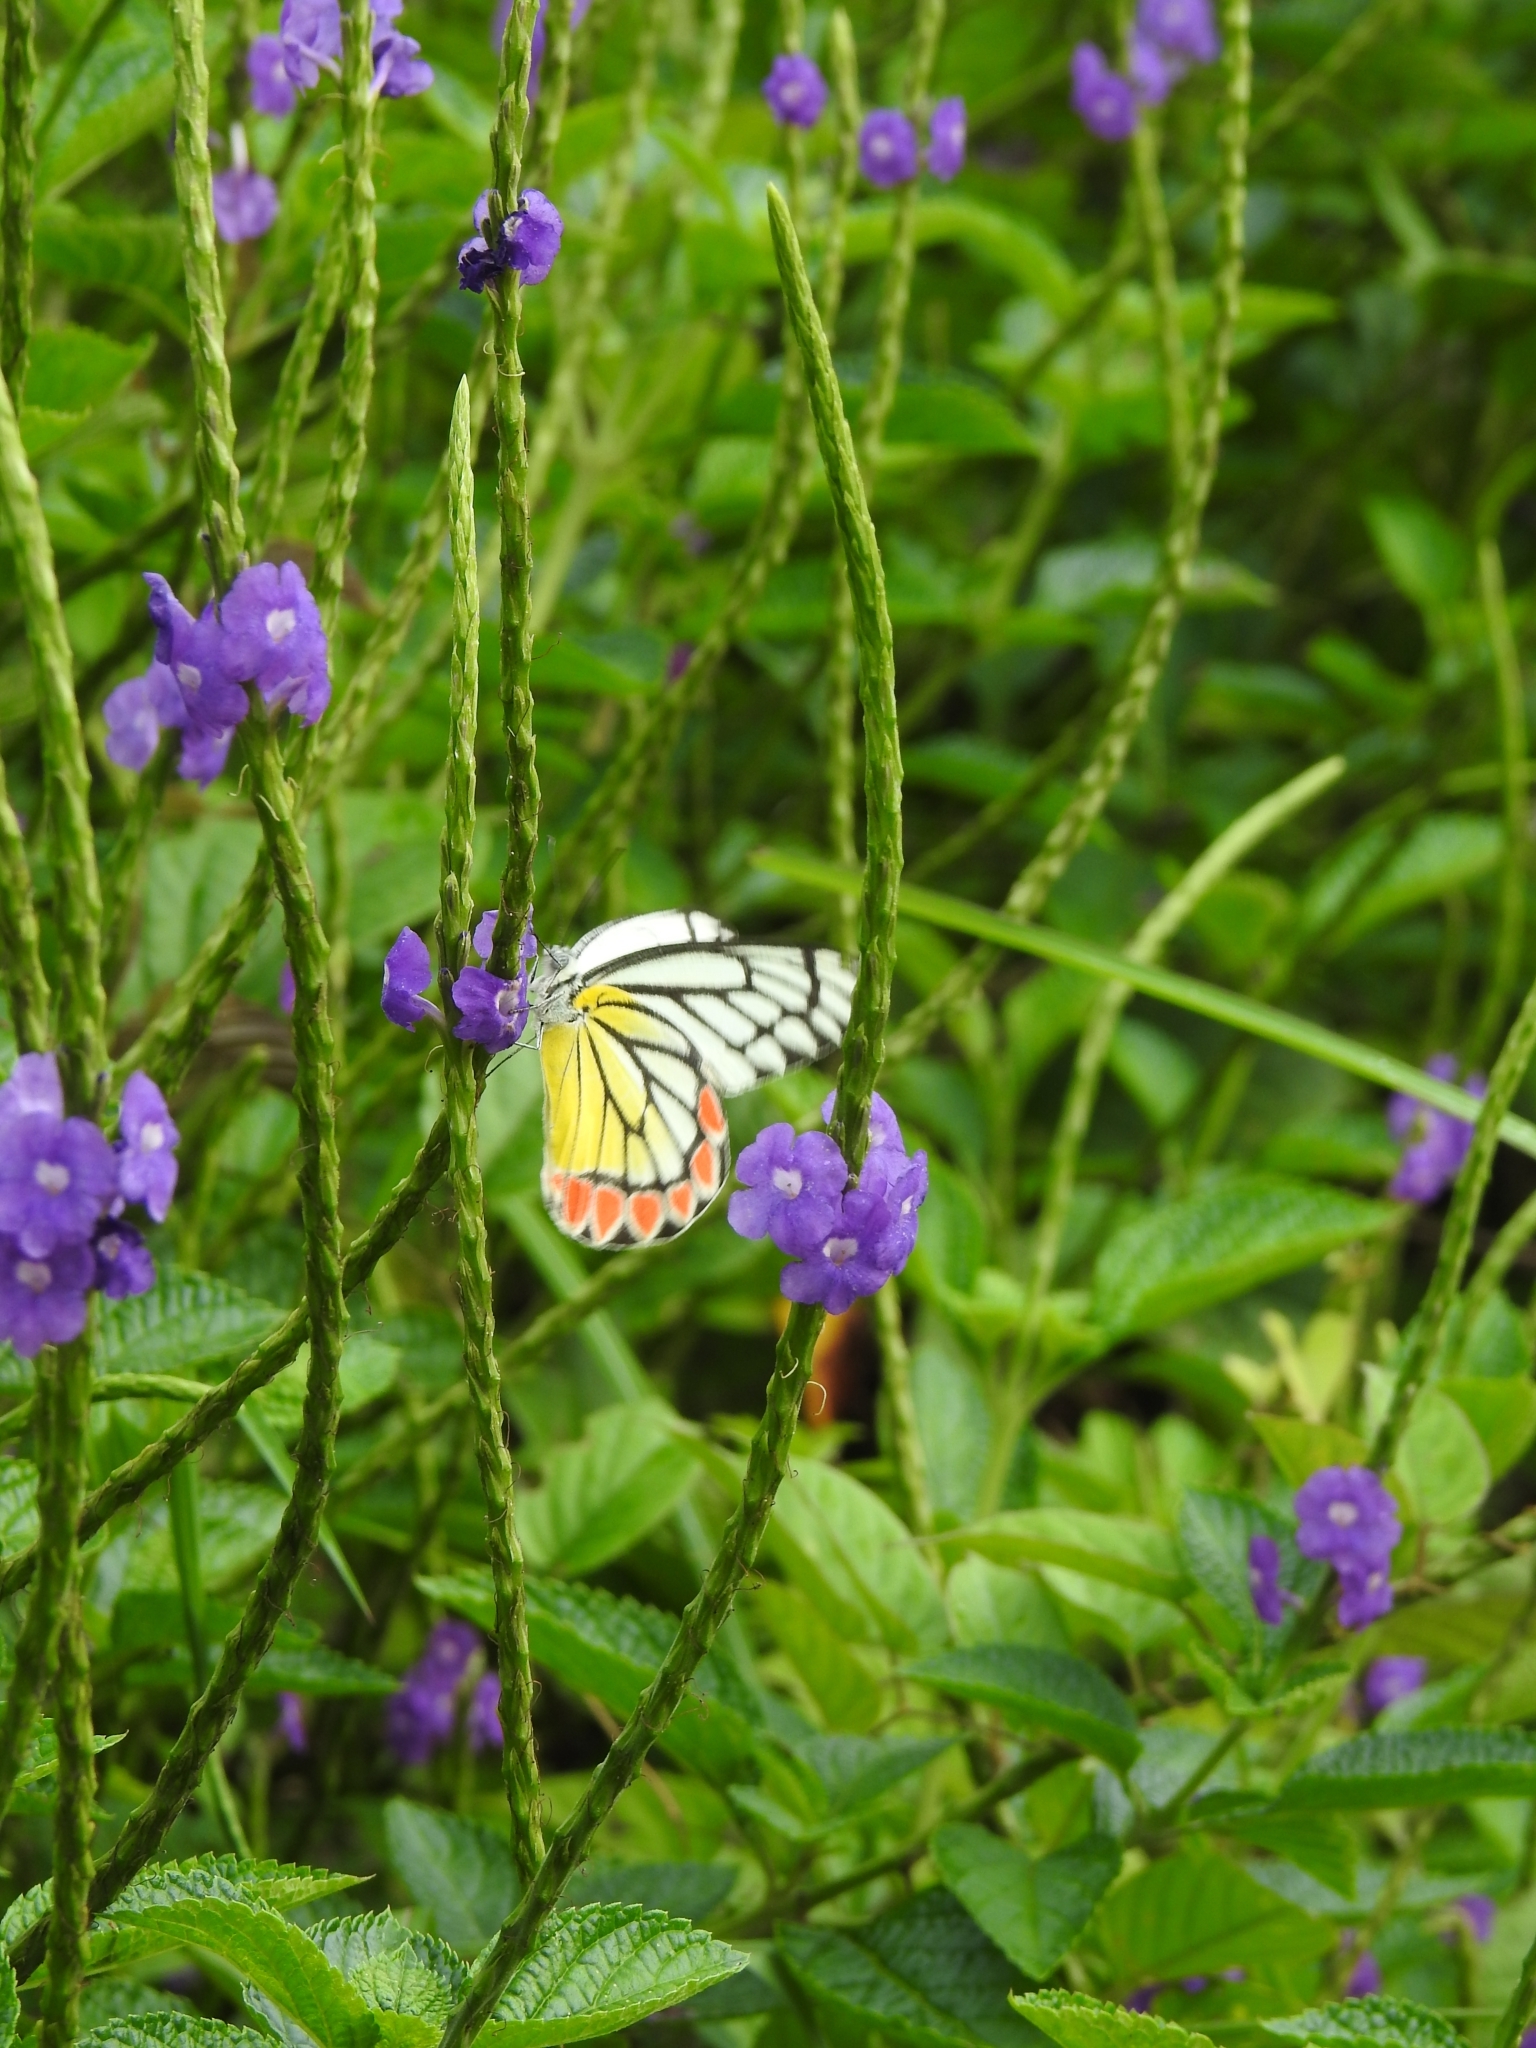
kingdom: Animalia
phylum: Arthropoda
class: Insecta
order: Lepidoptera
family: Pieridae
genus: Delias
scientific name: Delias eucharis
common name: Common jezebel
